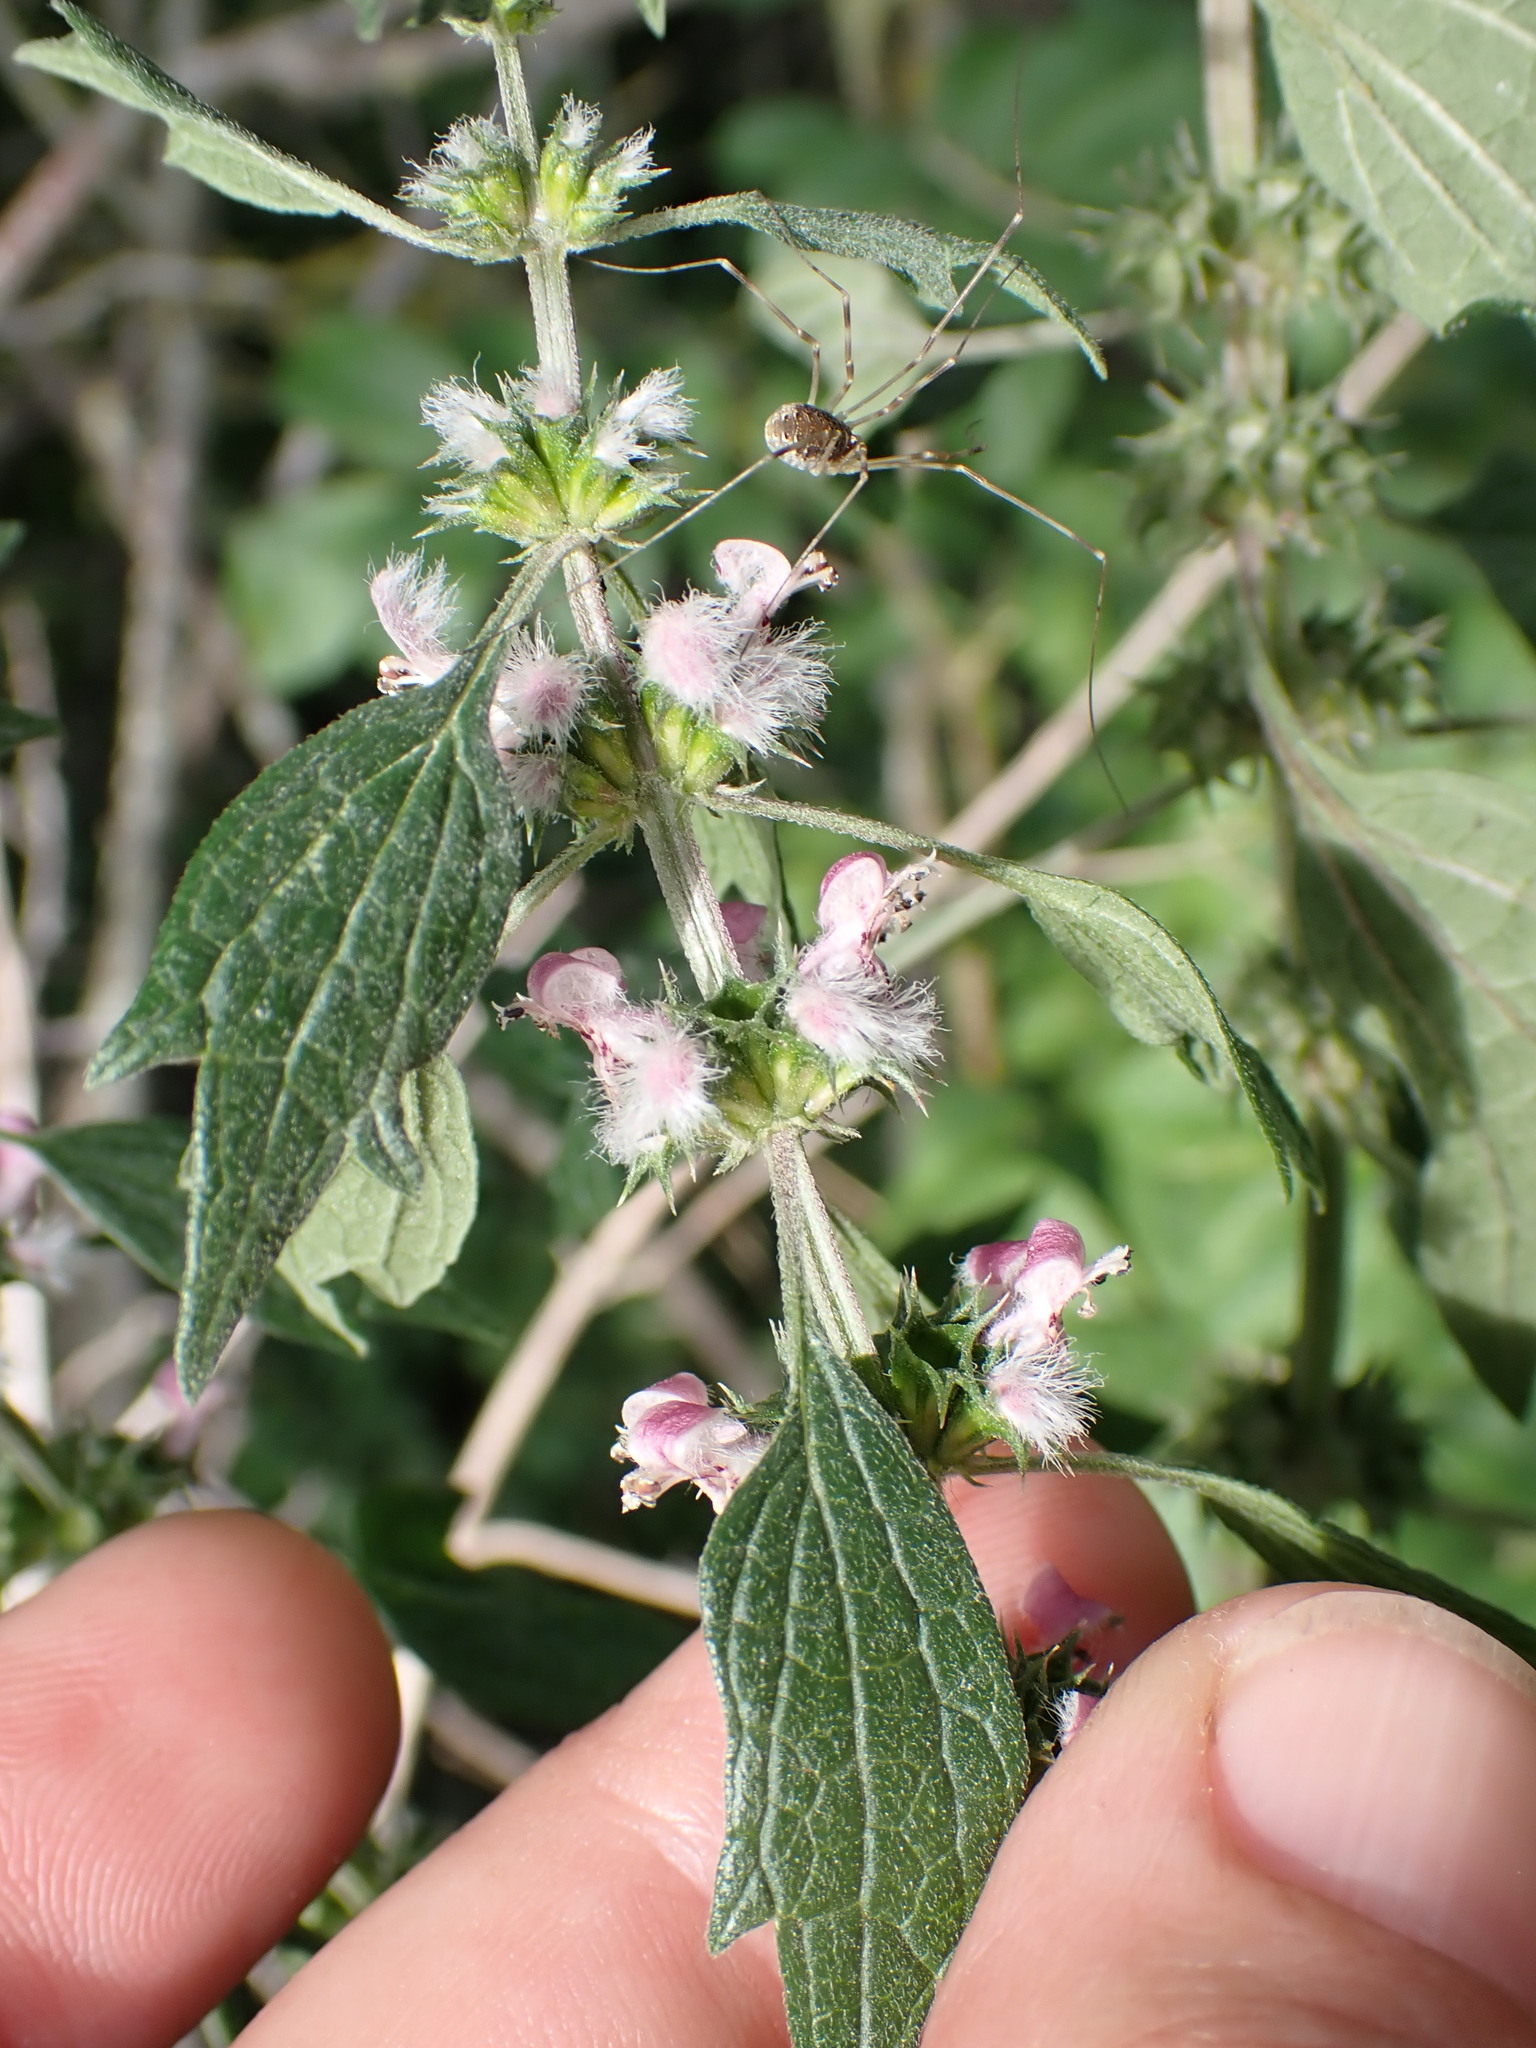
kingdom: Plantae
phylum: Tracheophyta
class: Magnoliopsida
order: Lamiales
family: Lamiaceae
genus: Leonurus
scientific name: Leonurus cardiaca
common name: Motherwort
